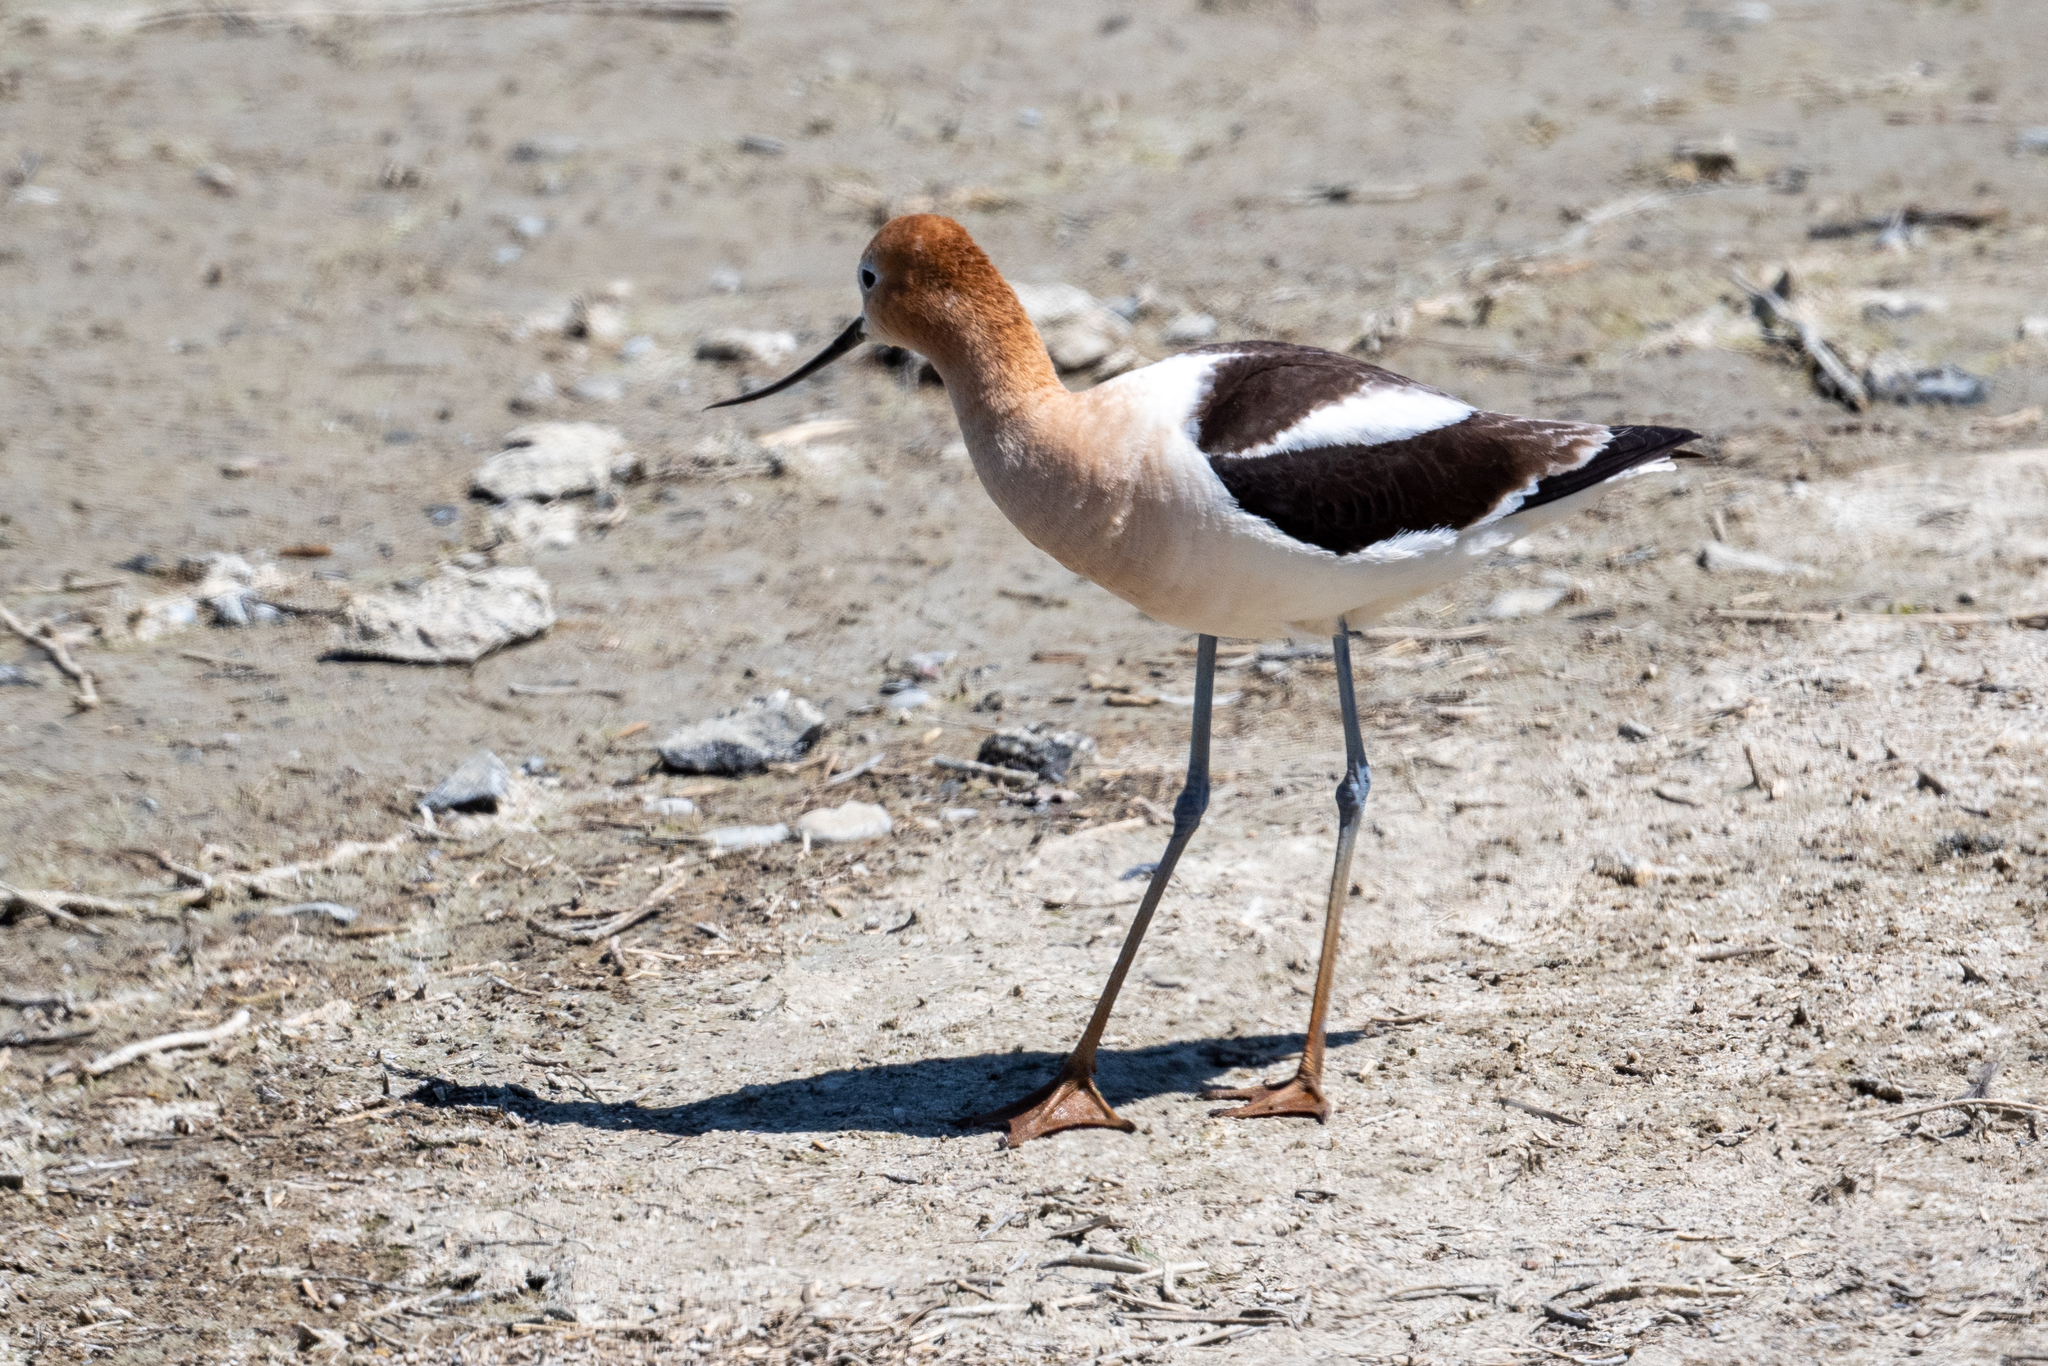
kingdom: Animalia
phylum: Chordata
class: Aves
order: Charadriiformes
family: Recurvirostridae
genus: Recurvirostra
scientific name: Recurvirostra americana
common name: American avocet
